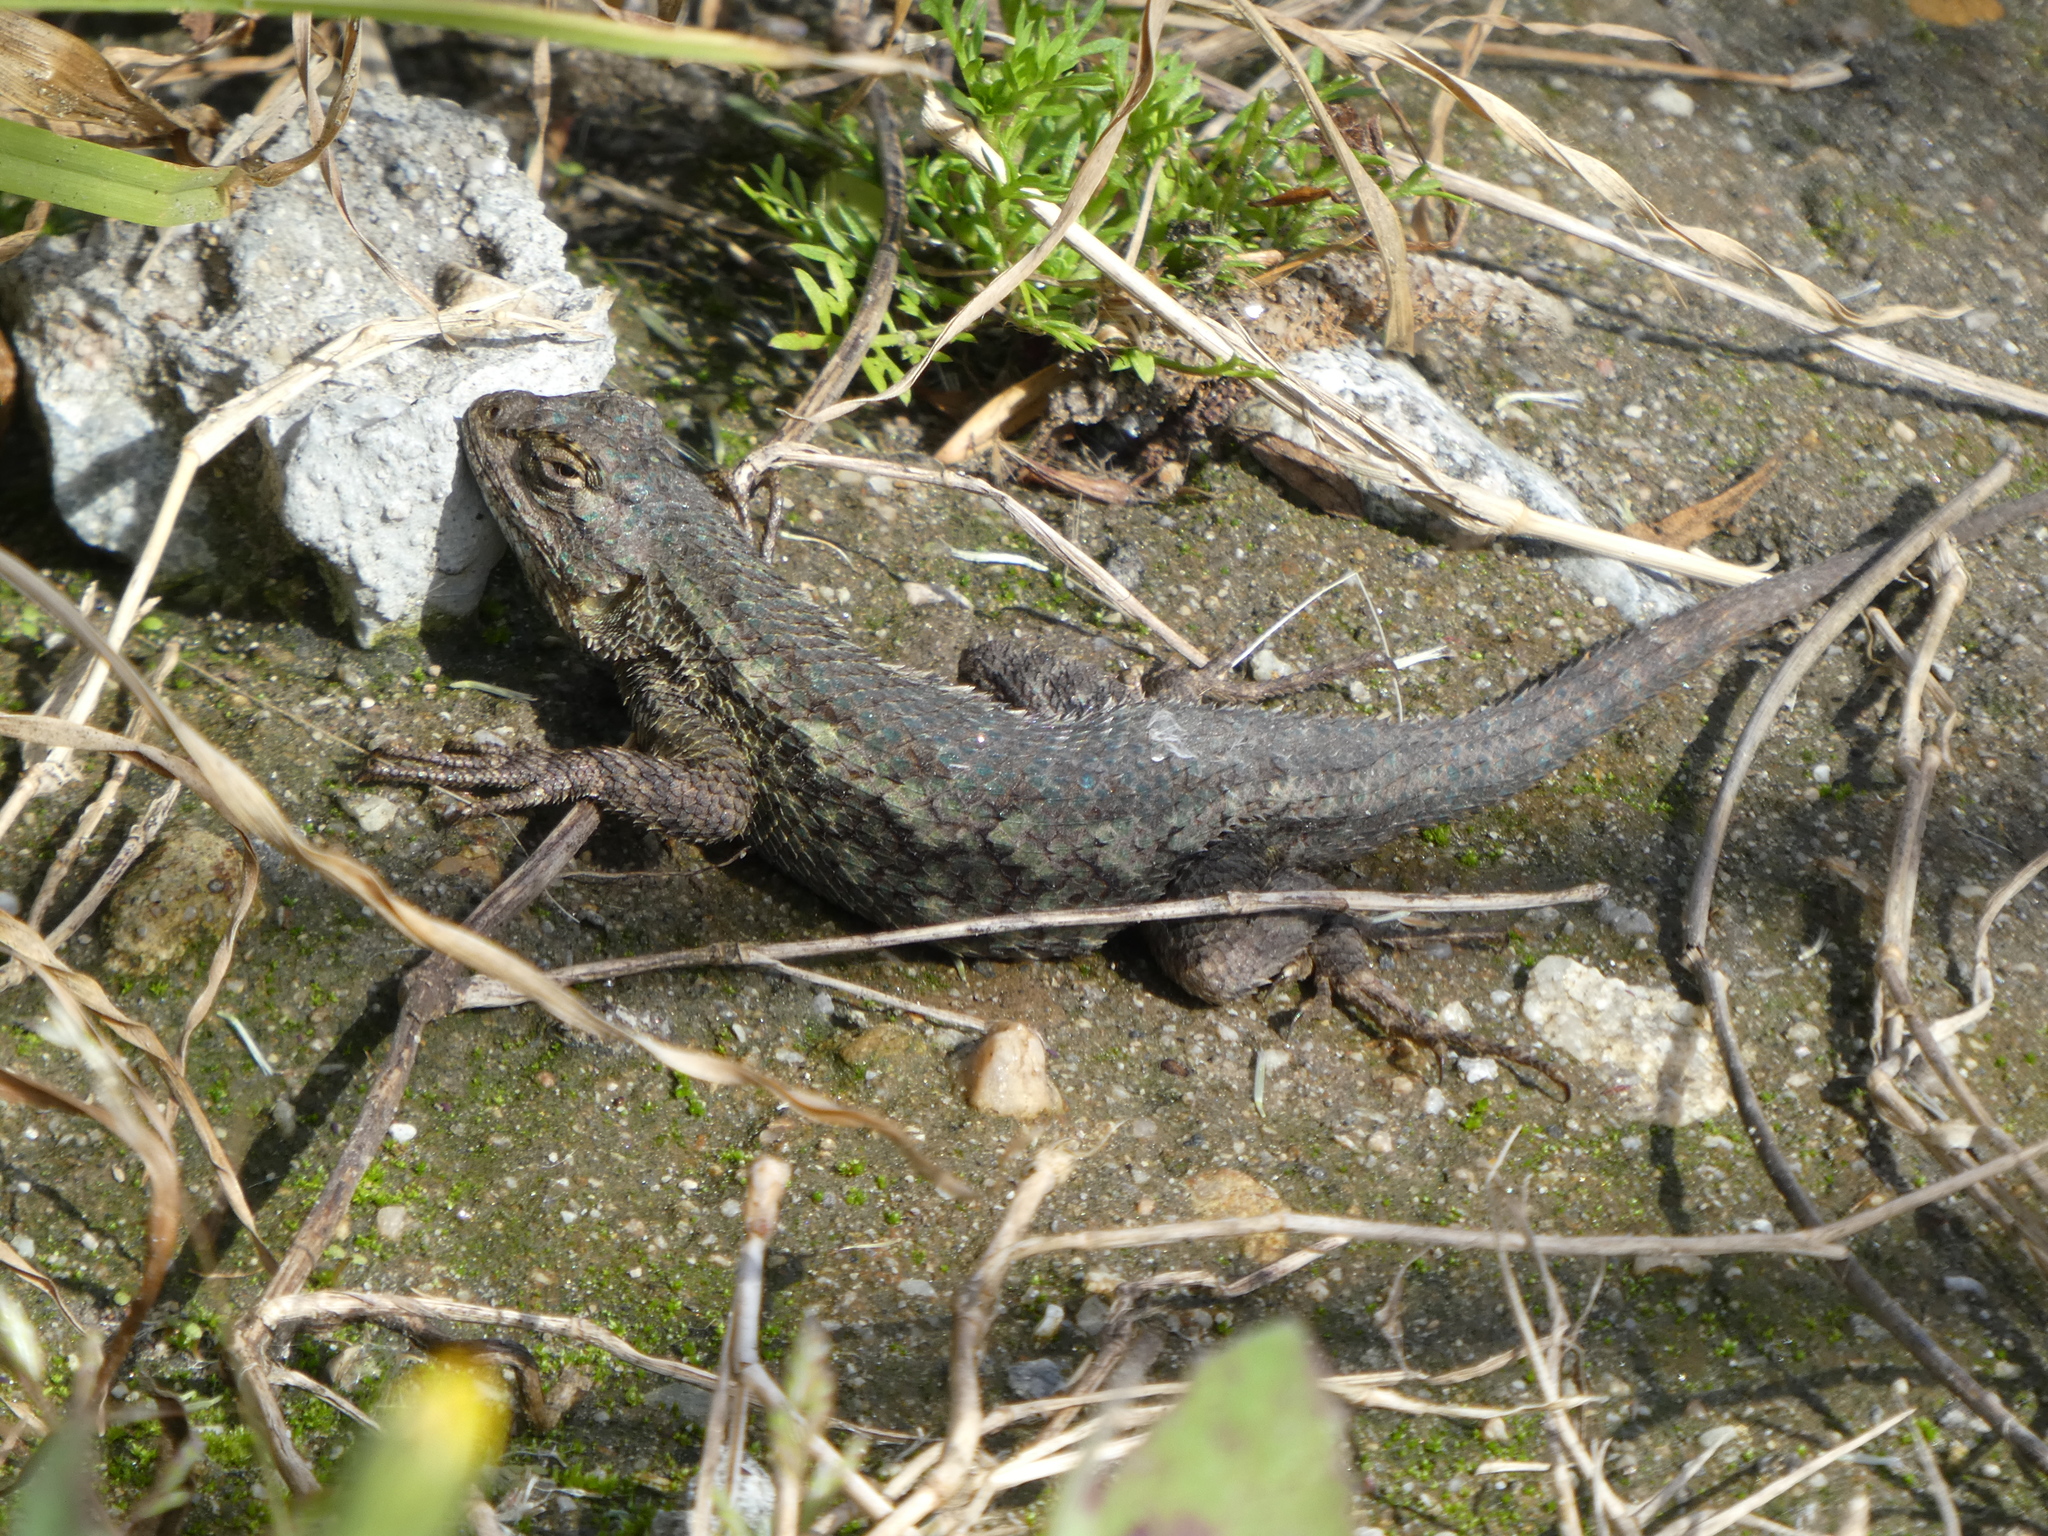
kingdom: Animalia
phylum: Chordata
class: Squamata
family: Phrynosomatidae
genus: Sceloporus
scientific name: Sceloporus occidentalis
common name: Western fence lizard
